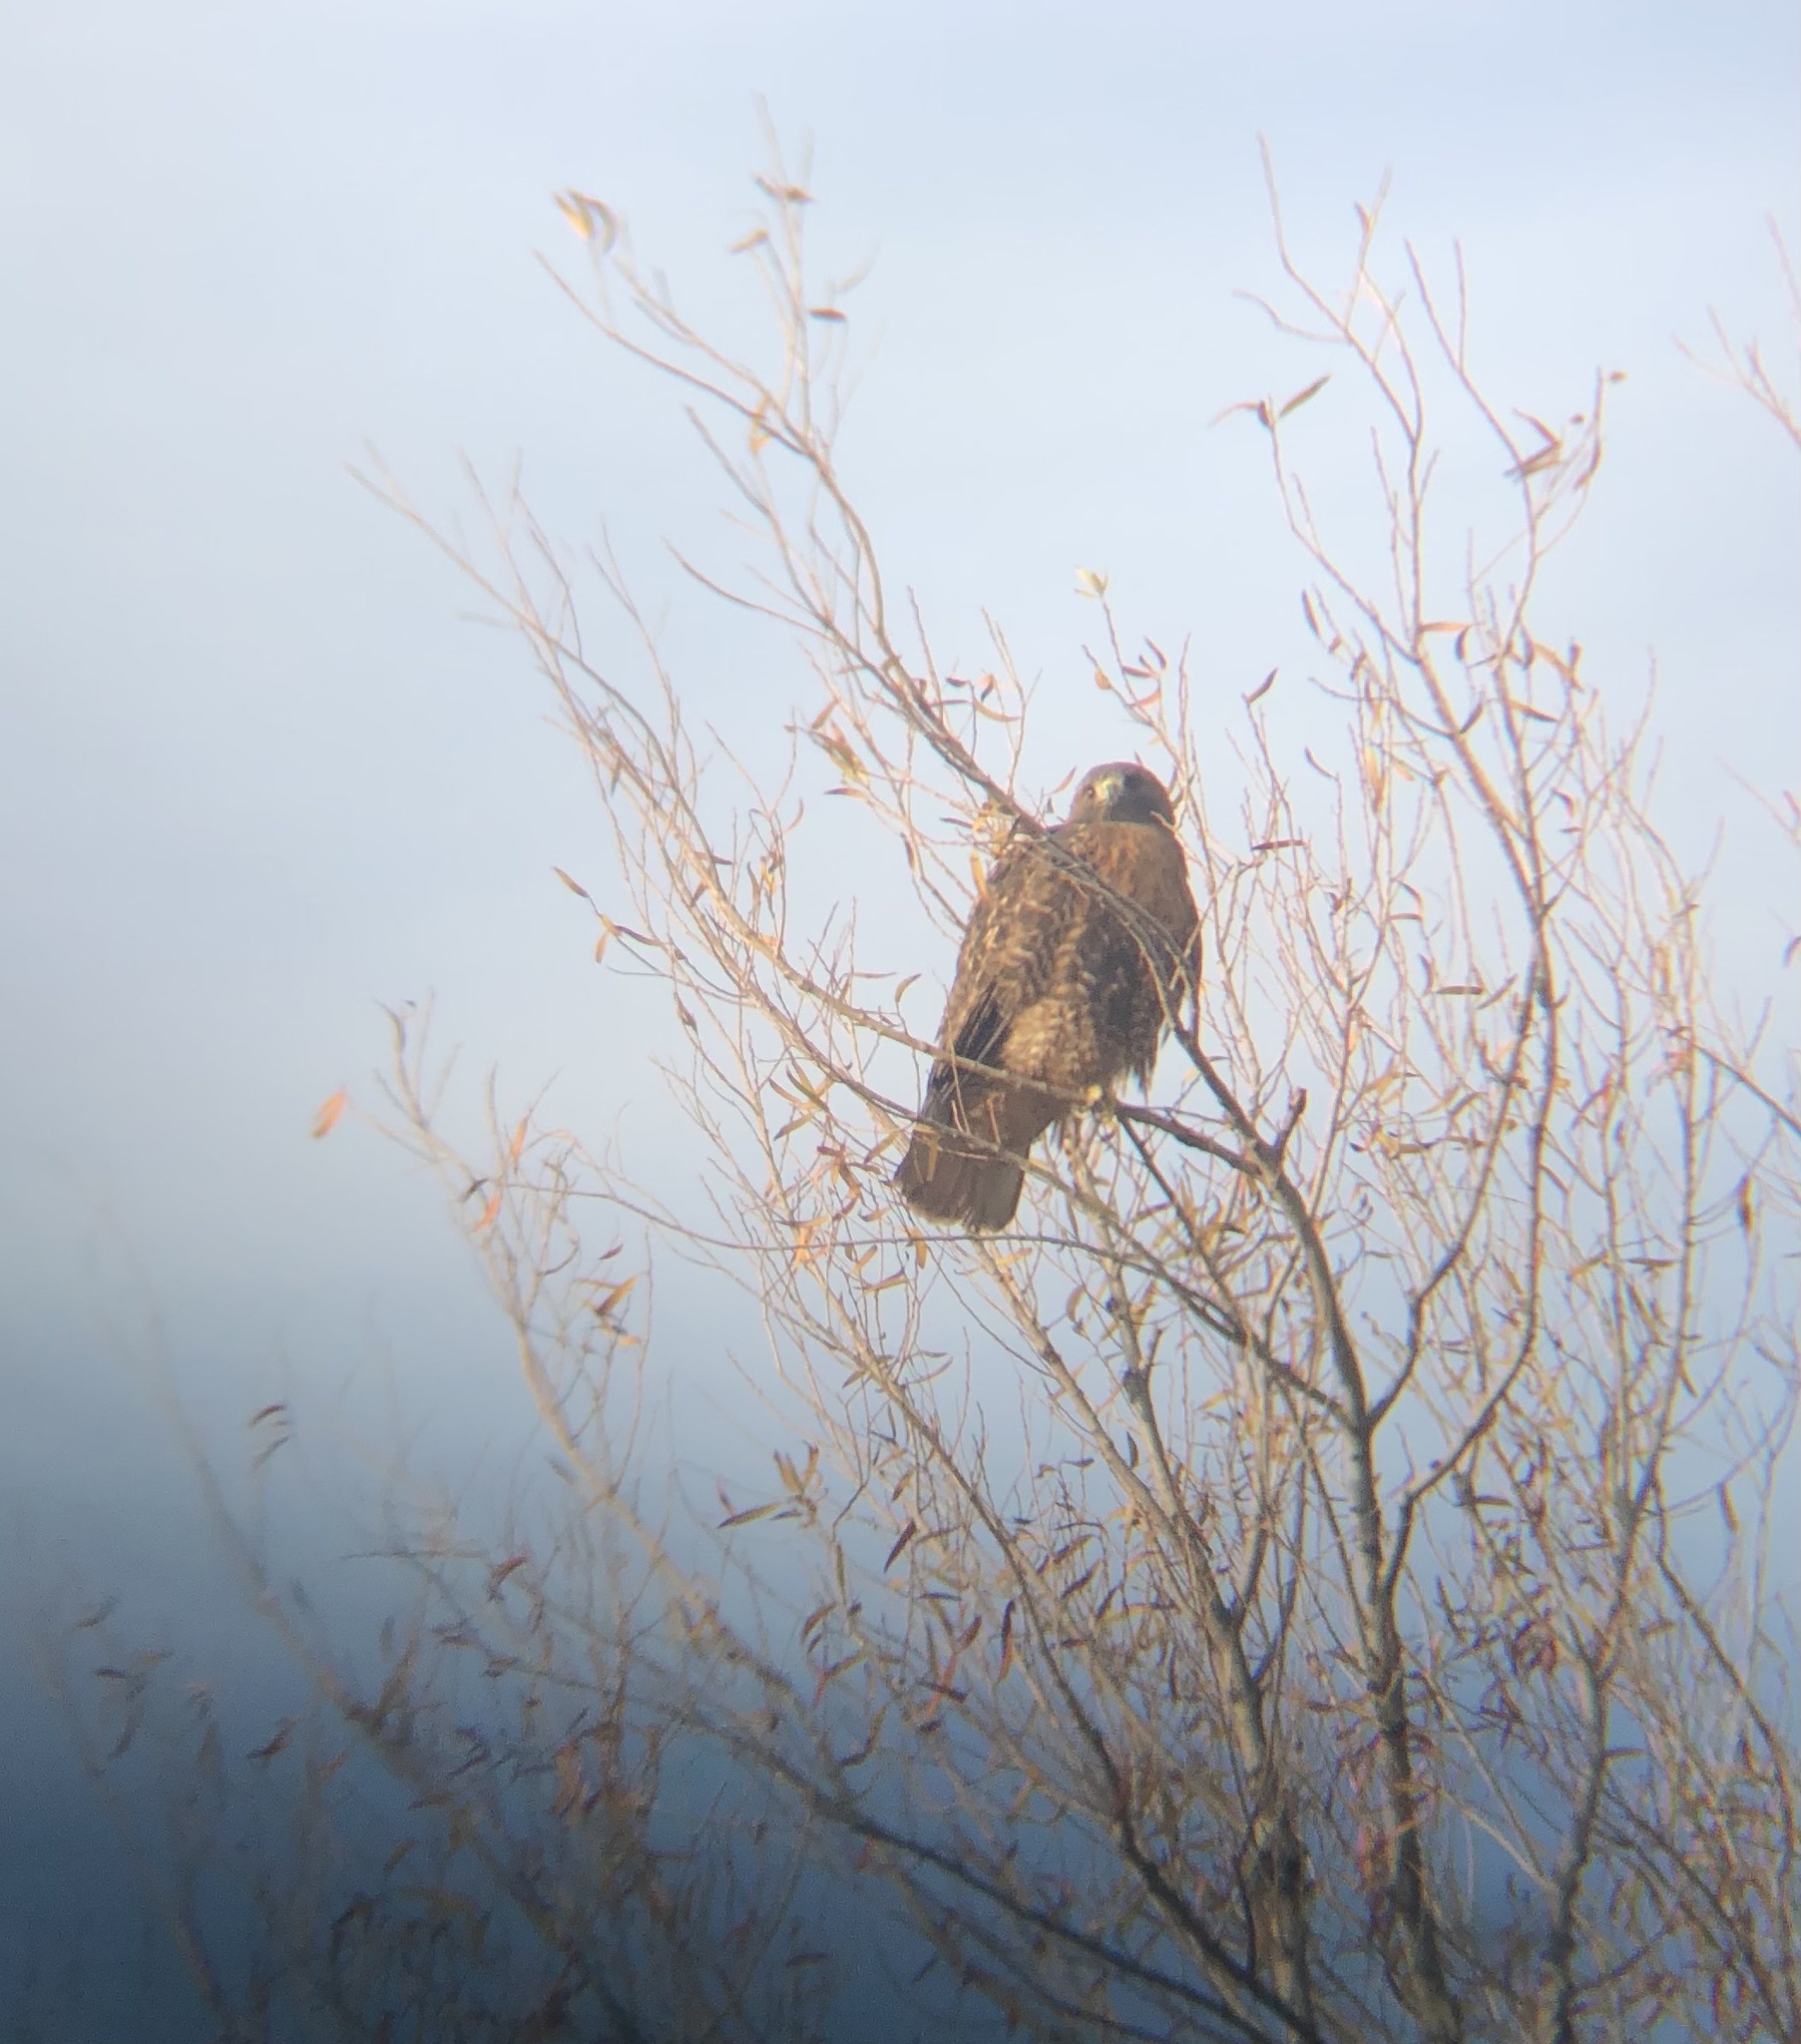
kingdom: Animalia
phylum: Chordata
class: Aves
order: Accipitriformes
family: Accipitridae
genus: Buteo
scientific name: Buteo jamaicensis
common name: Red-tailed hawk
